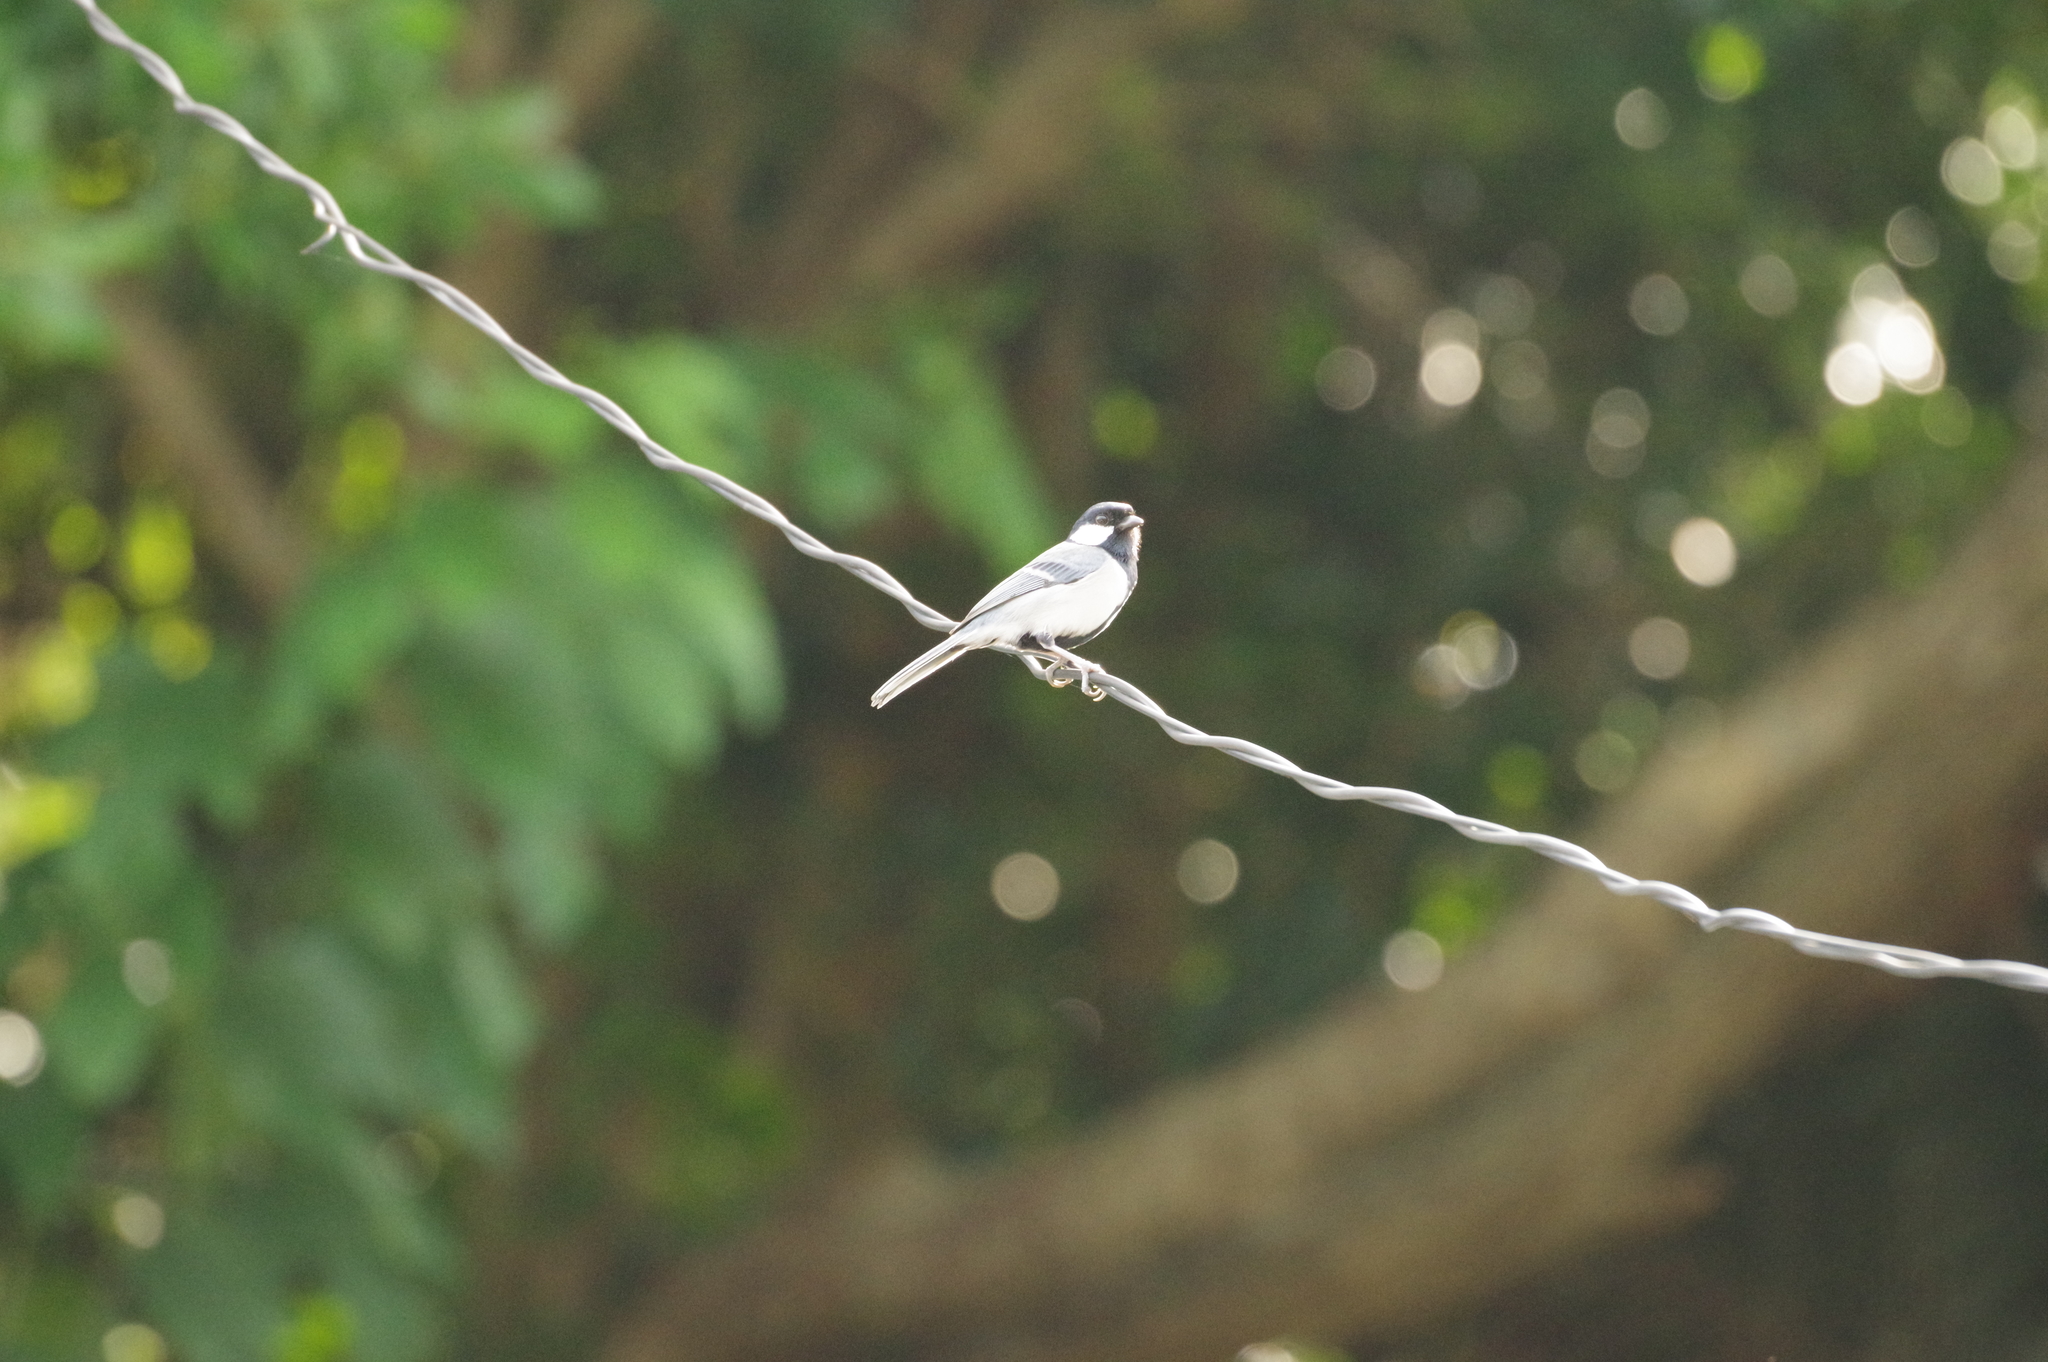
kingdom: Animalia
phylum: Chordata
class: Aves
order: Passeriformes
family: Paridae
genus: Parus
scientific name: Parus minor
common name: Japanese tit
